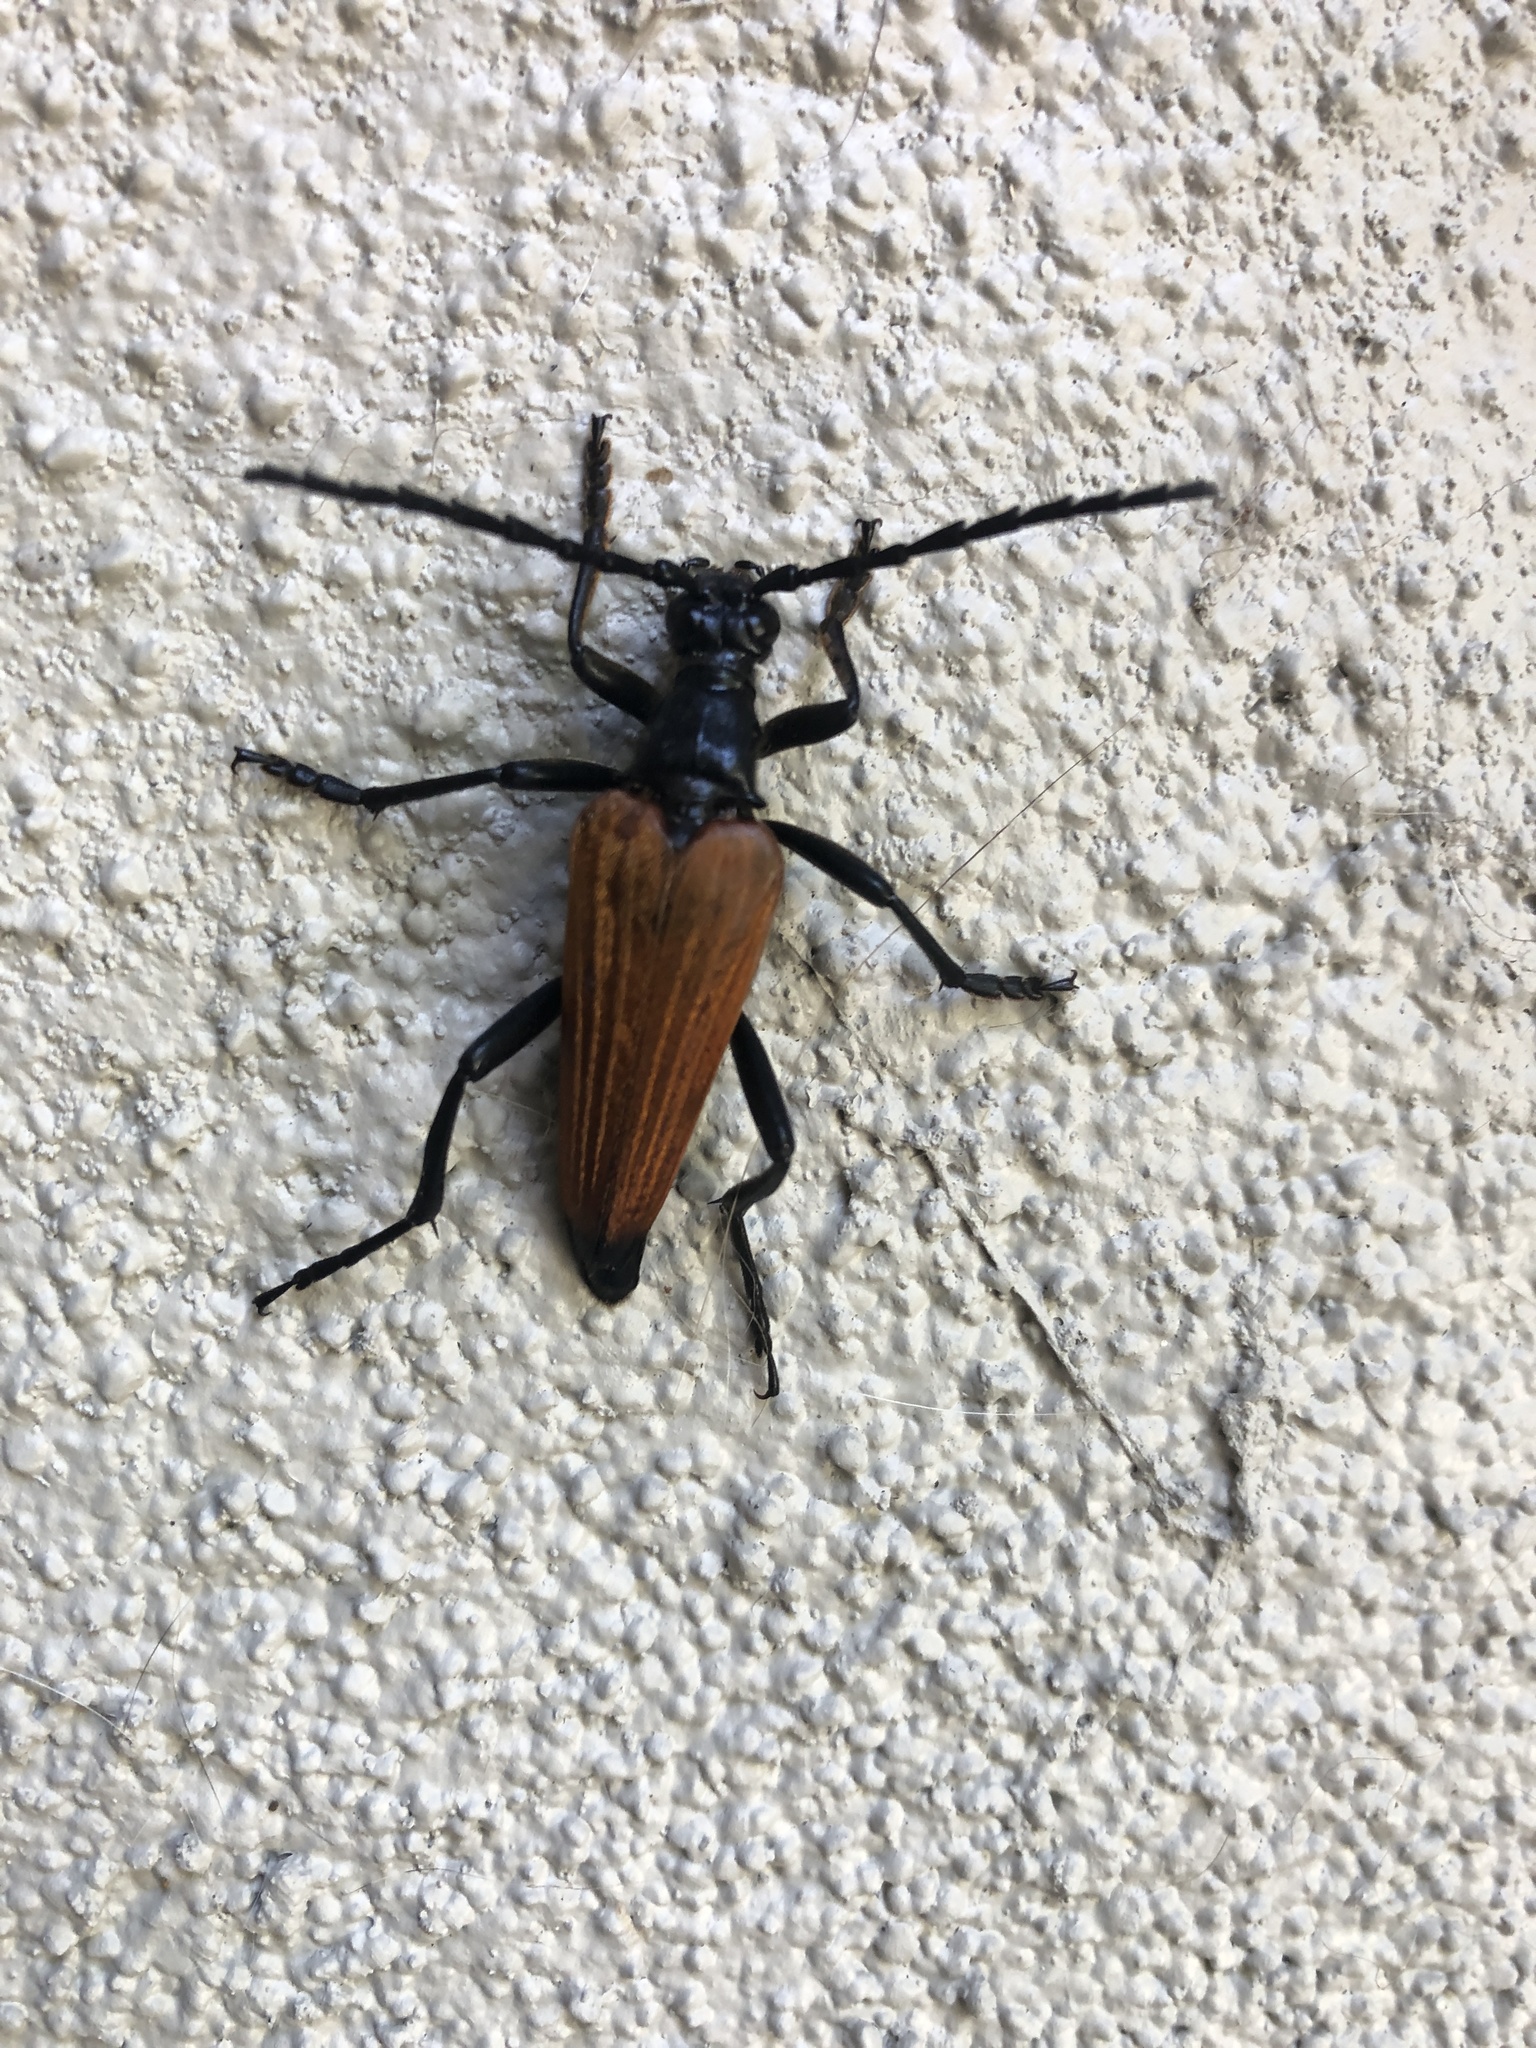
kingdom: Animalia
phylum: Arthropoda
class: Insecta
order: Coleoptera
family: Cerambycidae
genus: Stenelytrana
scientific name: Stenelytrana gigas
